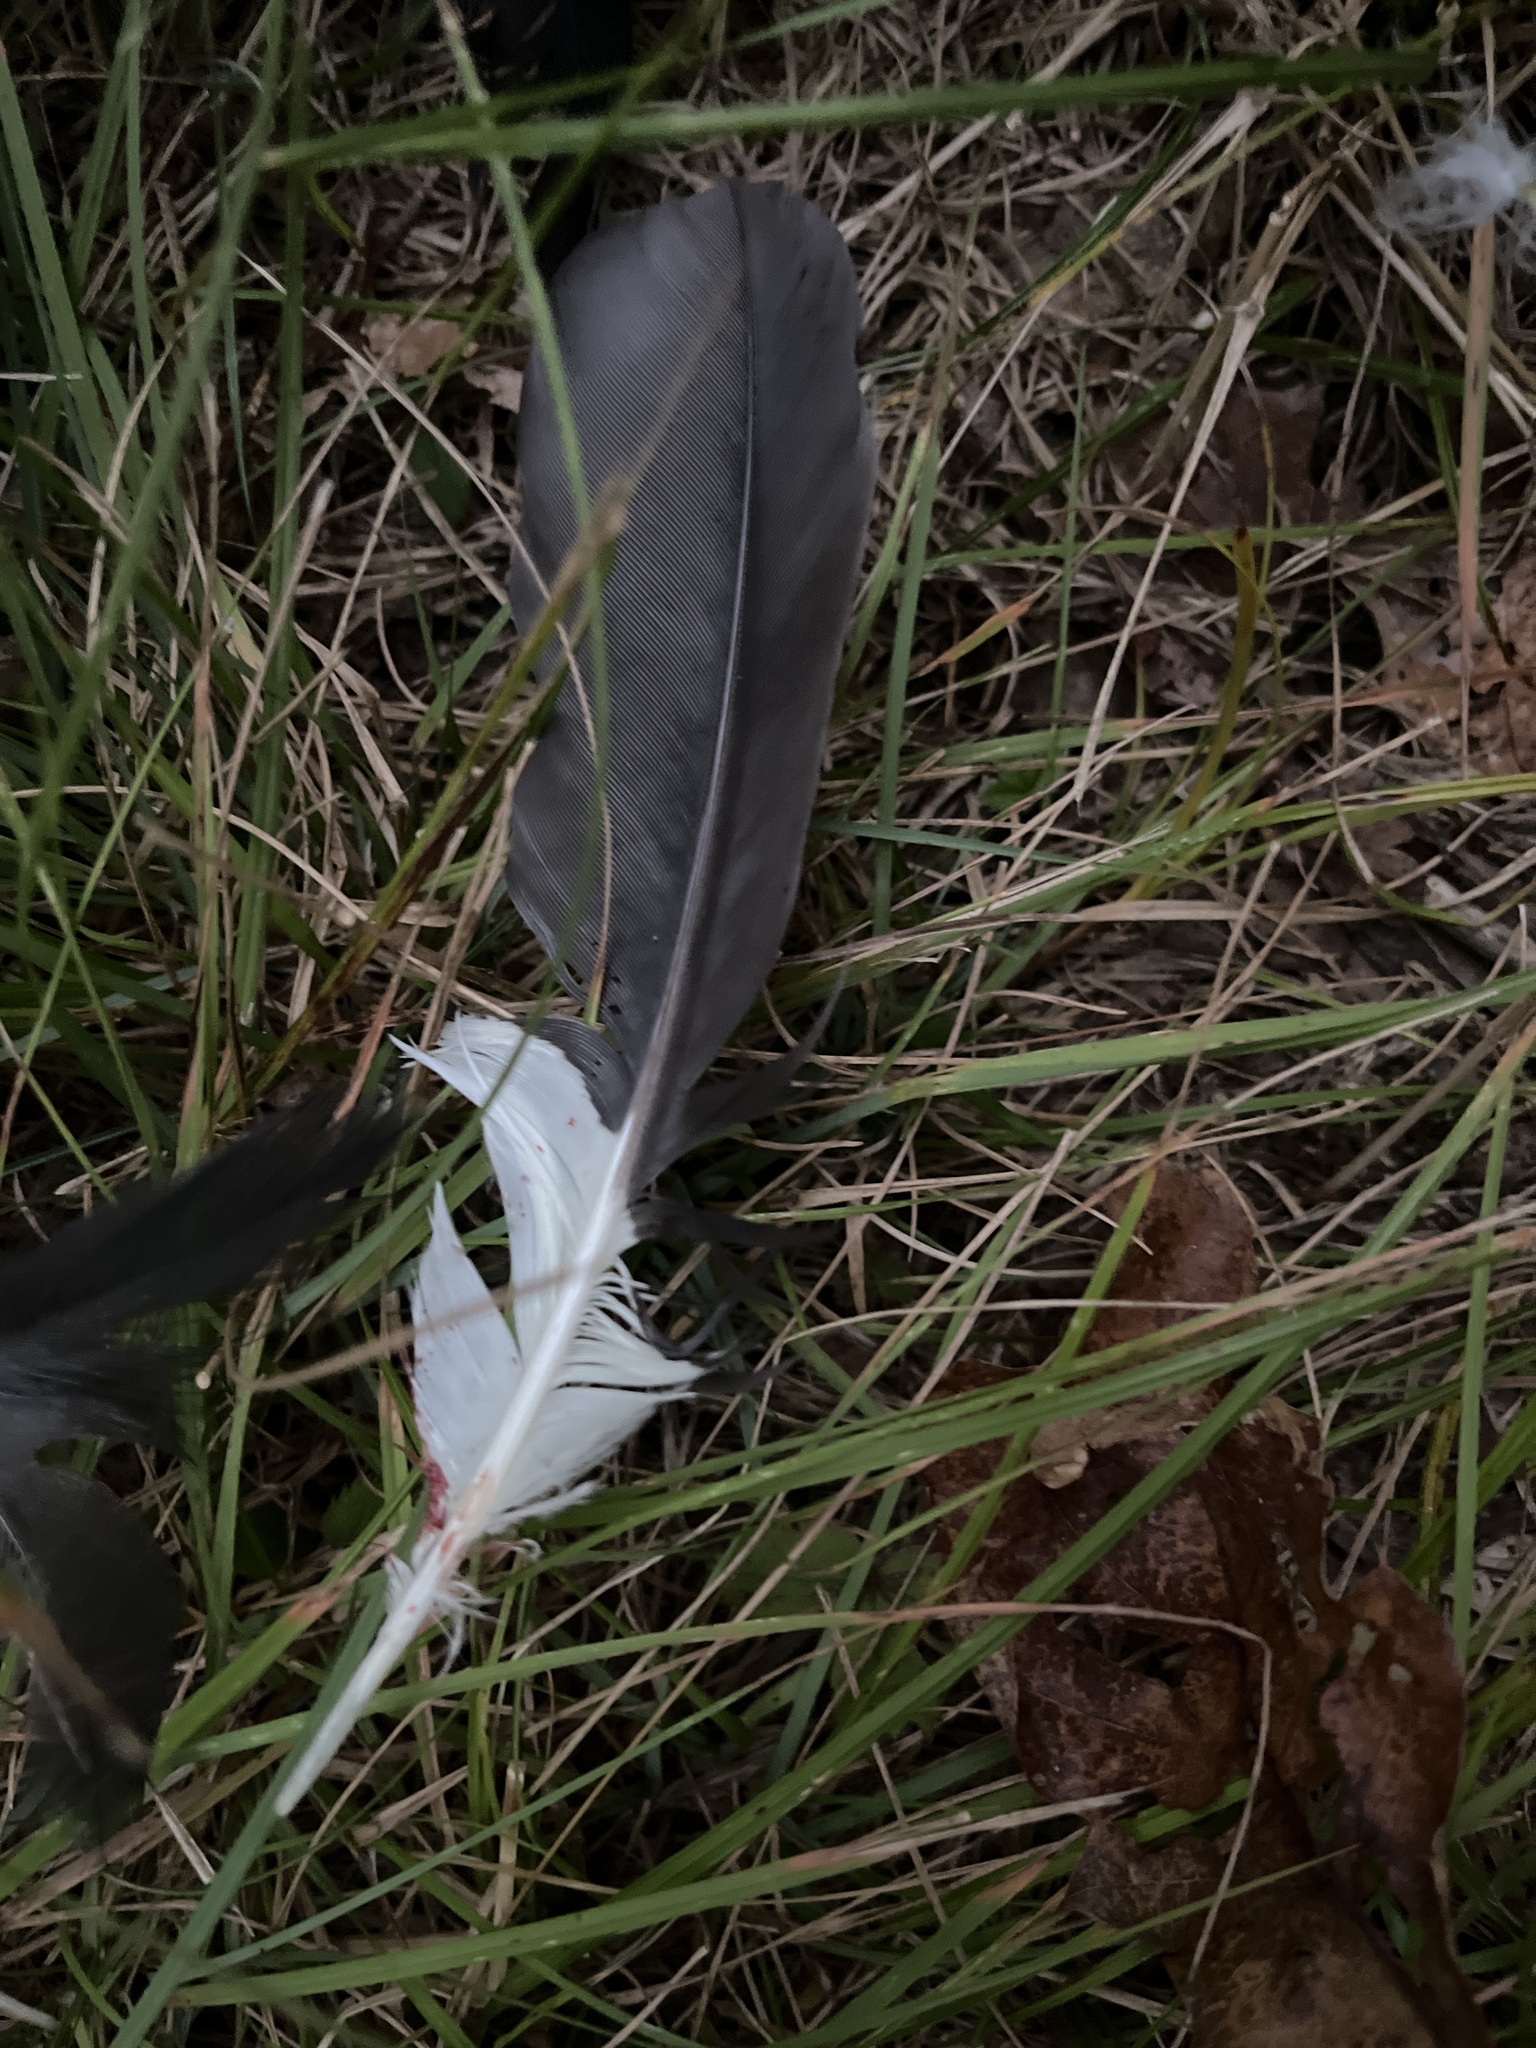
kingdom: Animalia
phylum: Chordata
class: Aves
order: Piciformes
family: Picidae
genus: Dryocopus
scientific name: Dryocopus pileatus
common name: Pileated woodpecker
